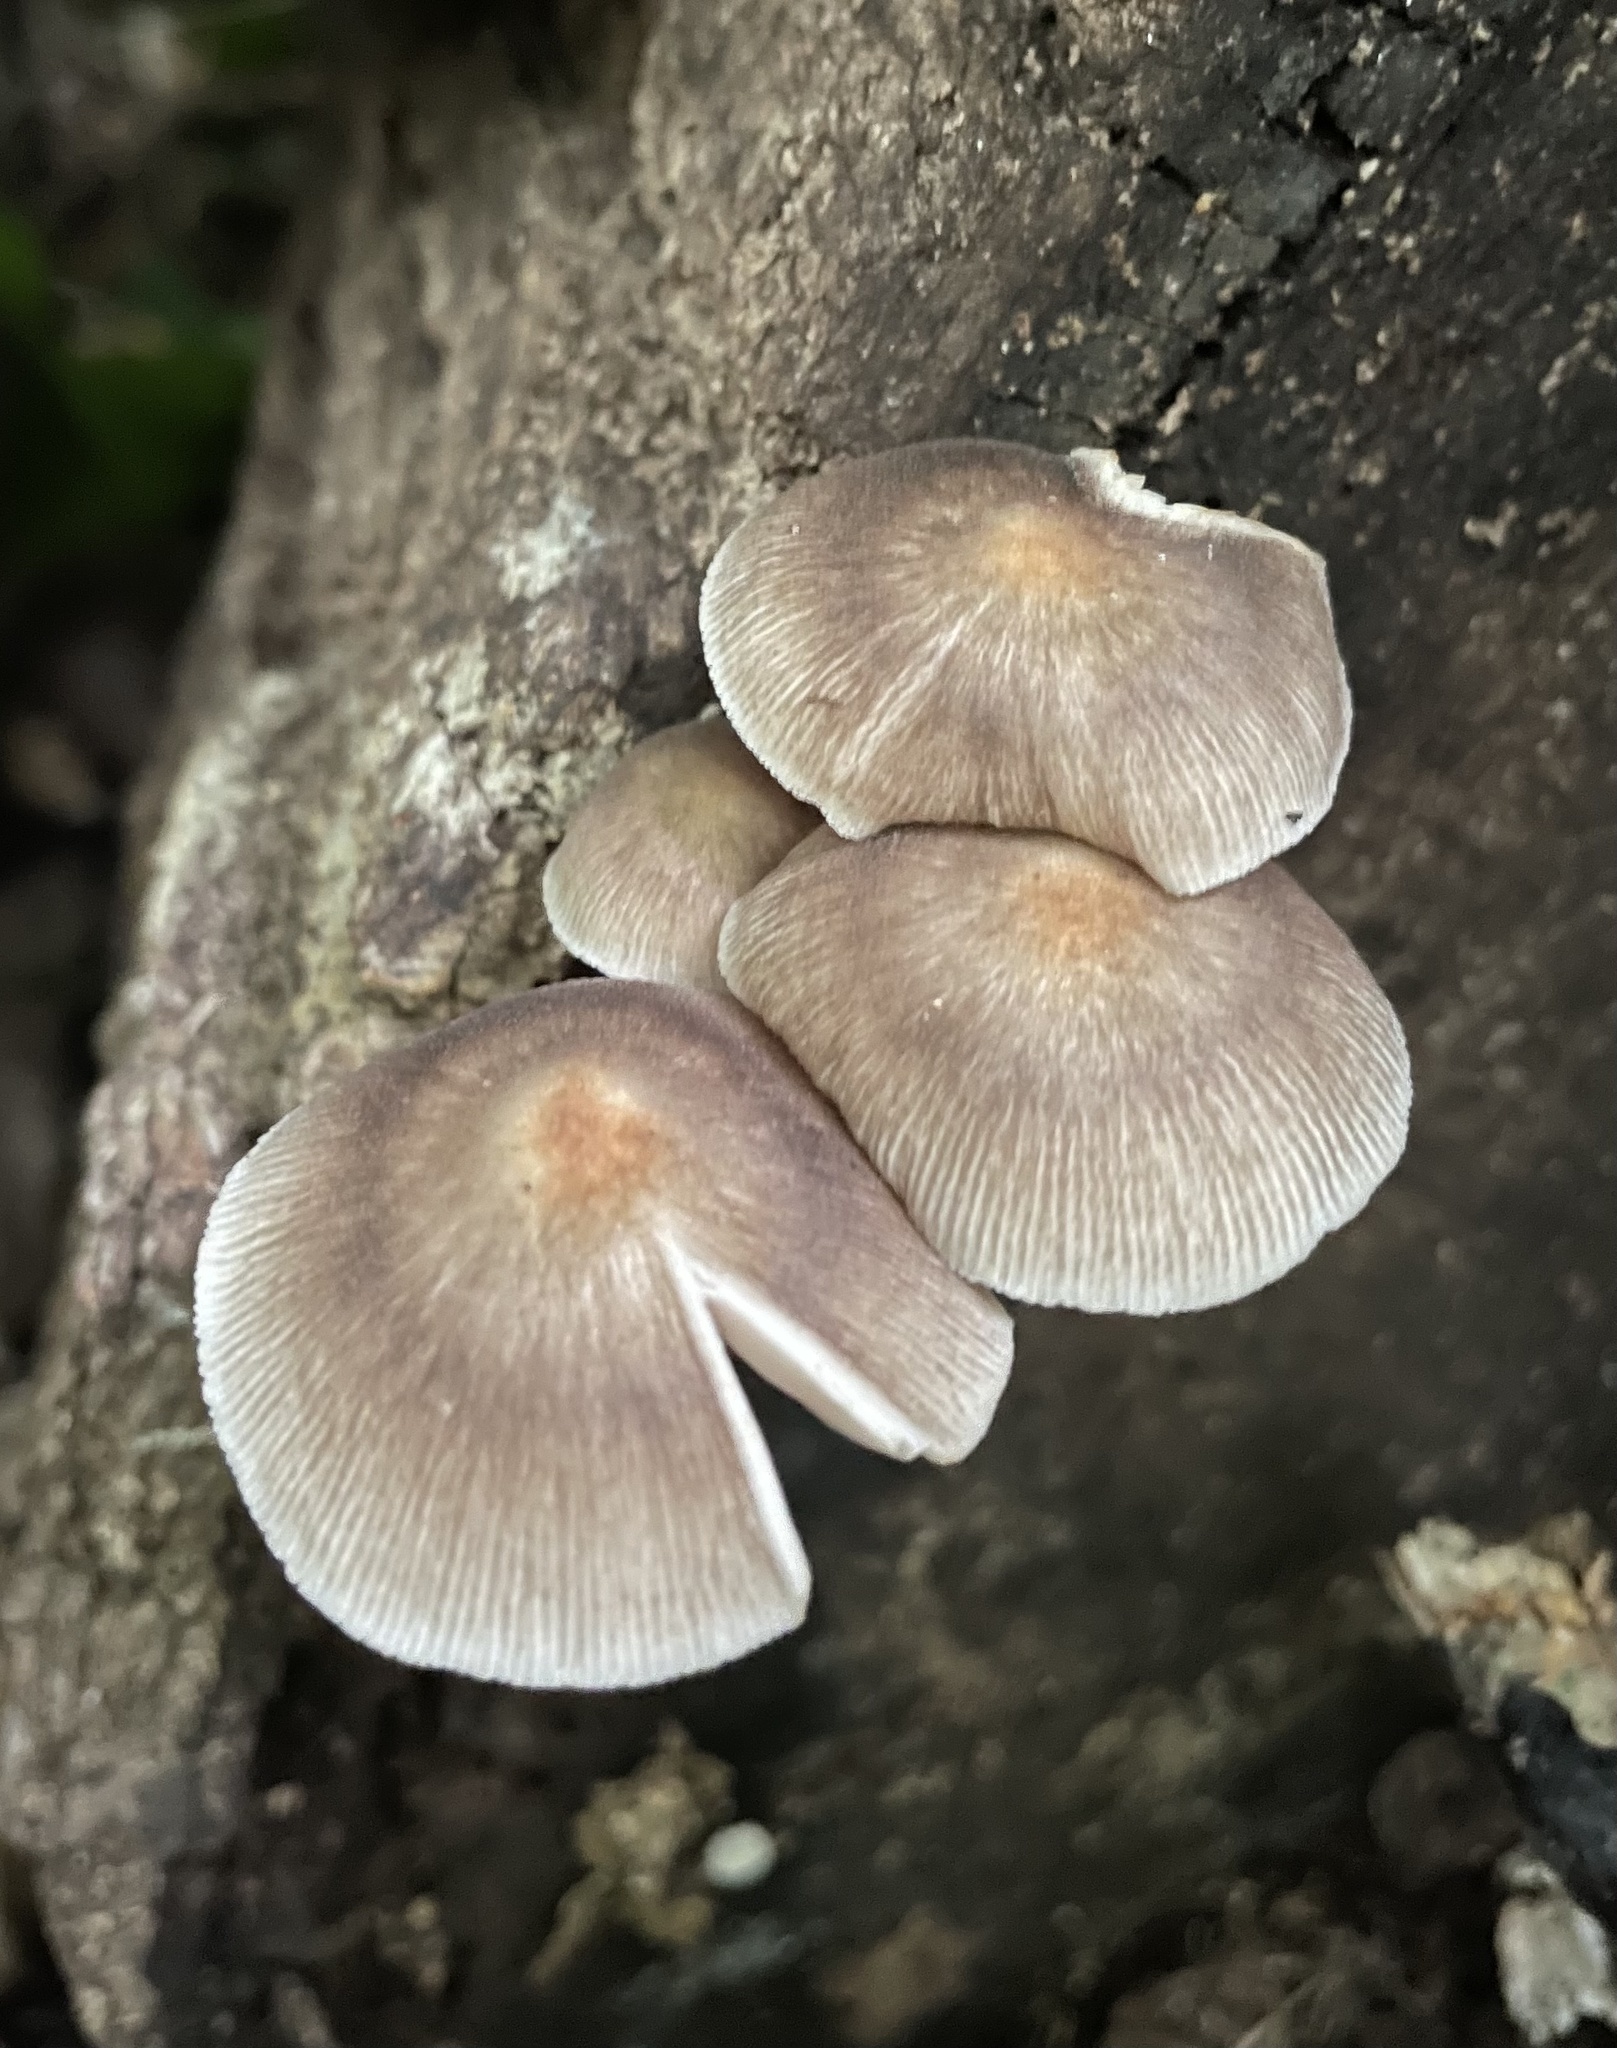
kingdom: Fungi
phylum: Basidiomycota
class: Agaricomycetes
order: Agaricales
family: Pluteaceae
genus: Pluteus
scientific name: Pluteus longistriatus
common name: Pleated pluteus
